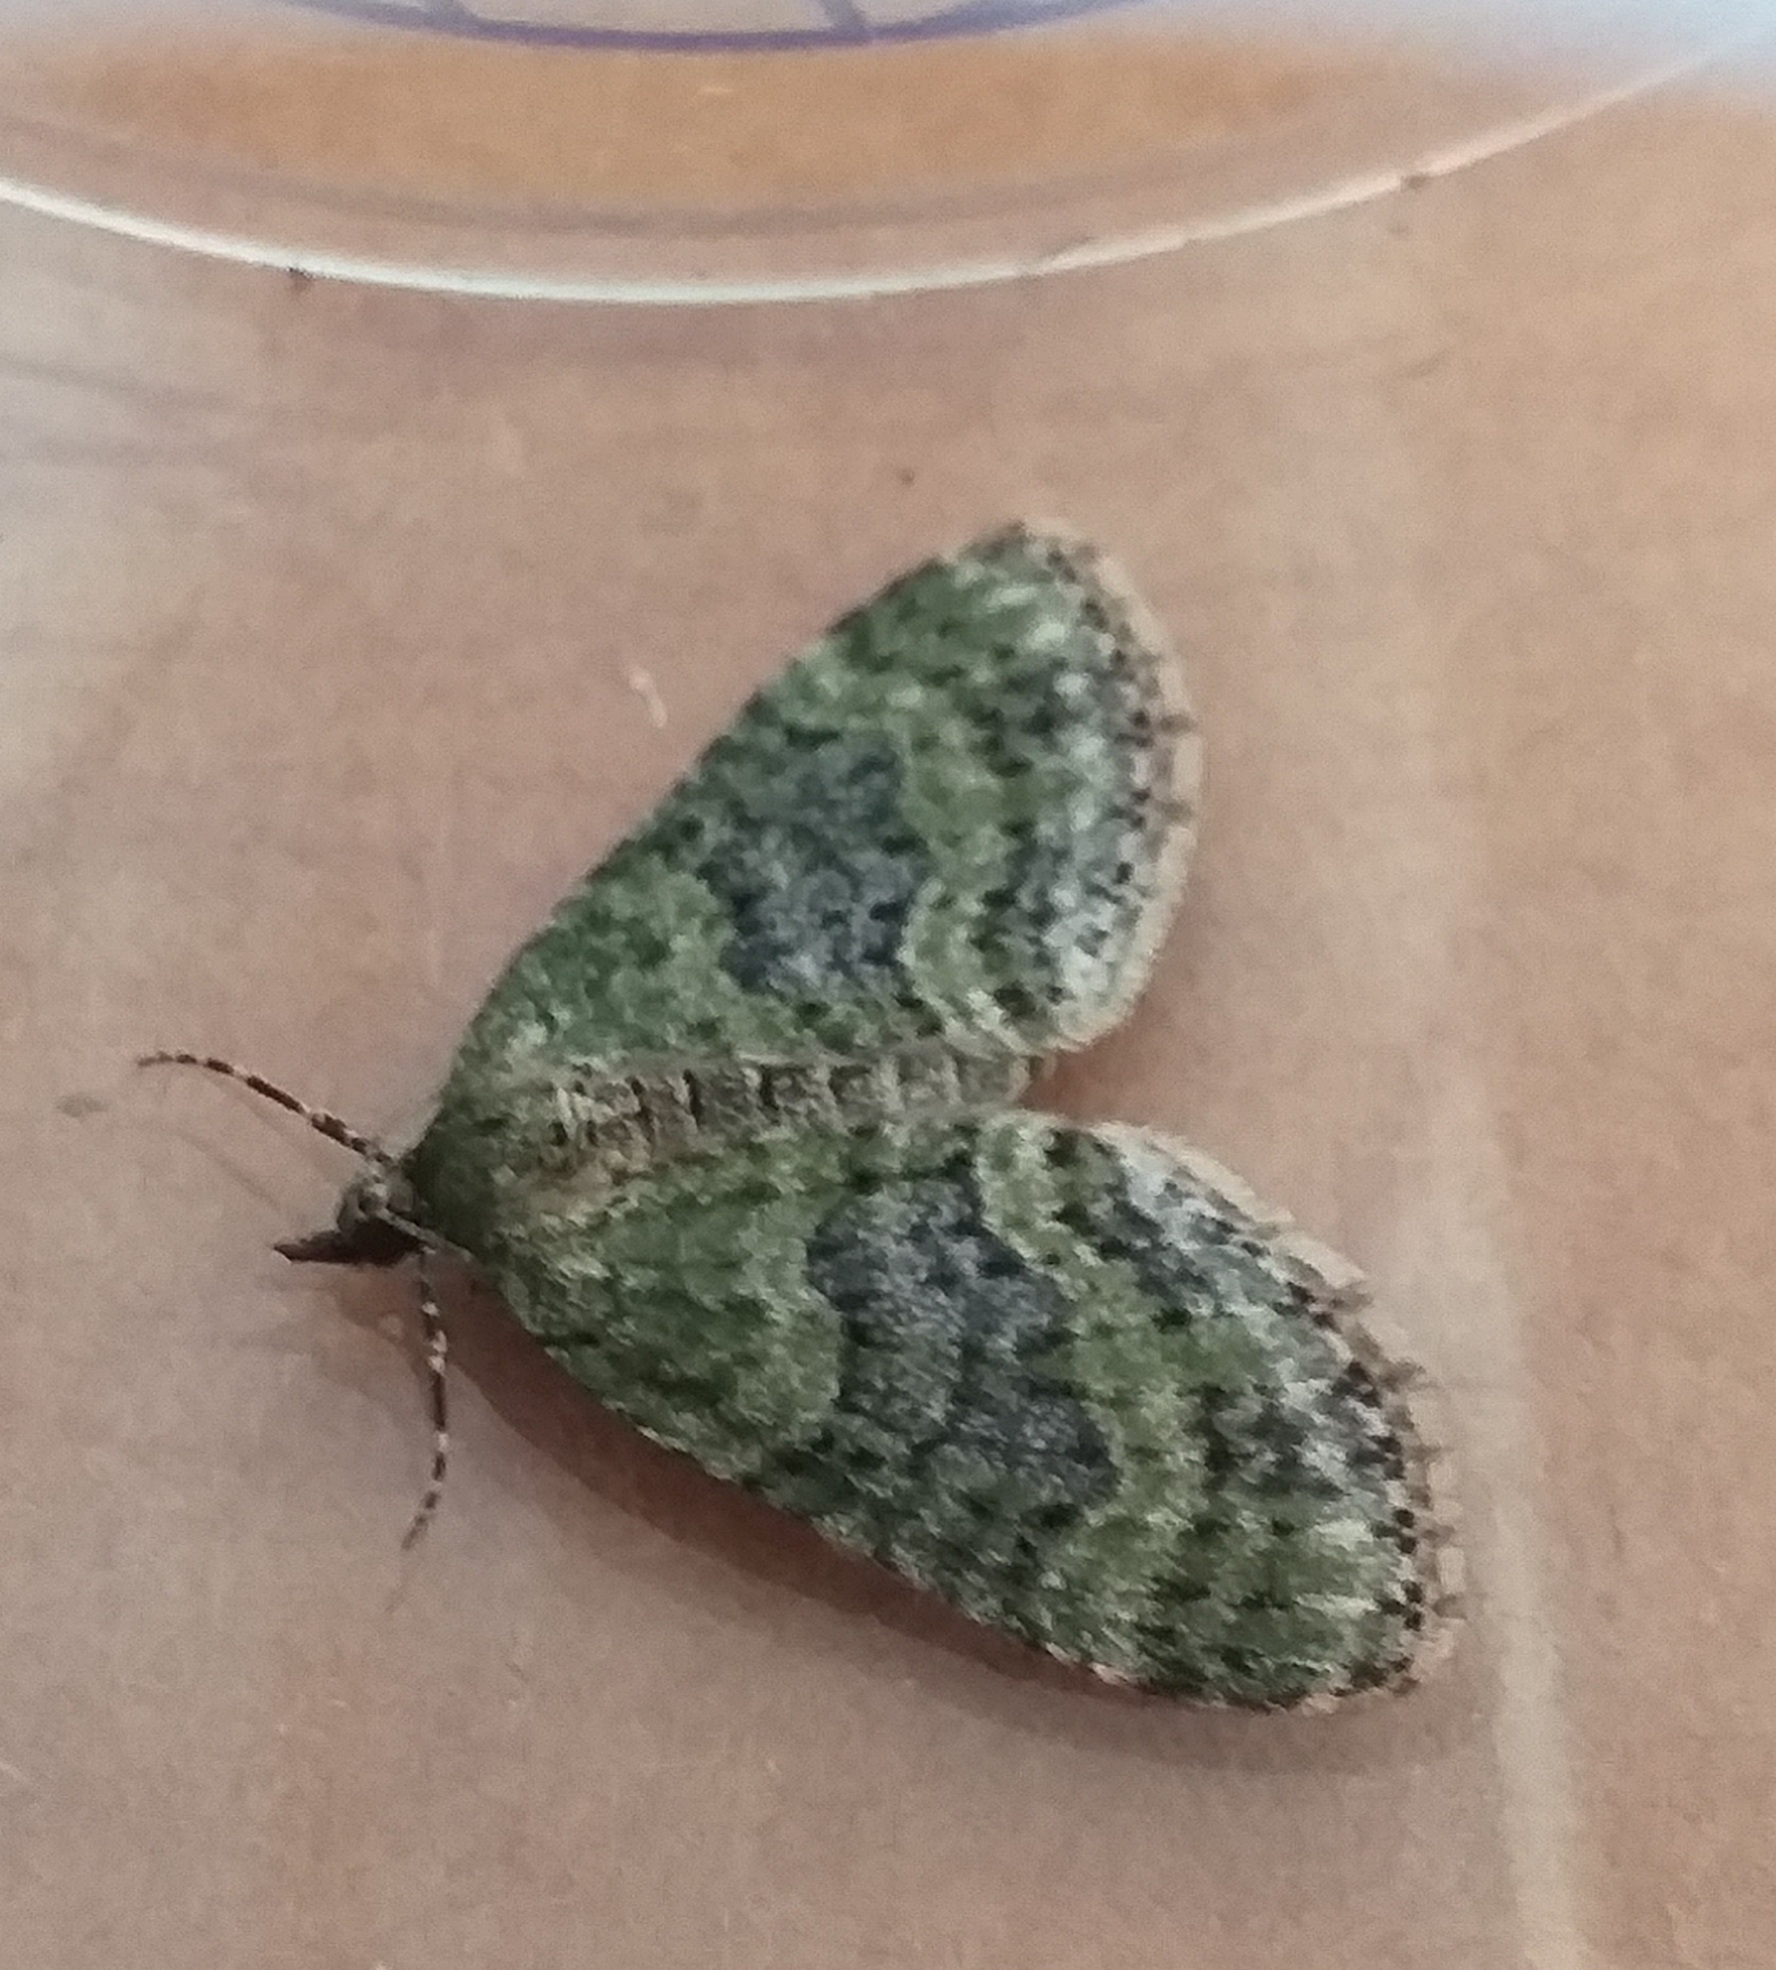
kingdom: Animalia
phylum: Arthropoda
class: Insecta
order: Lepidoptera
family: Geometridae
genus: Acasis
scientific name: Acasis viretata
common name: Yellow-barred brindle
